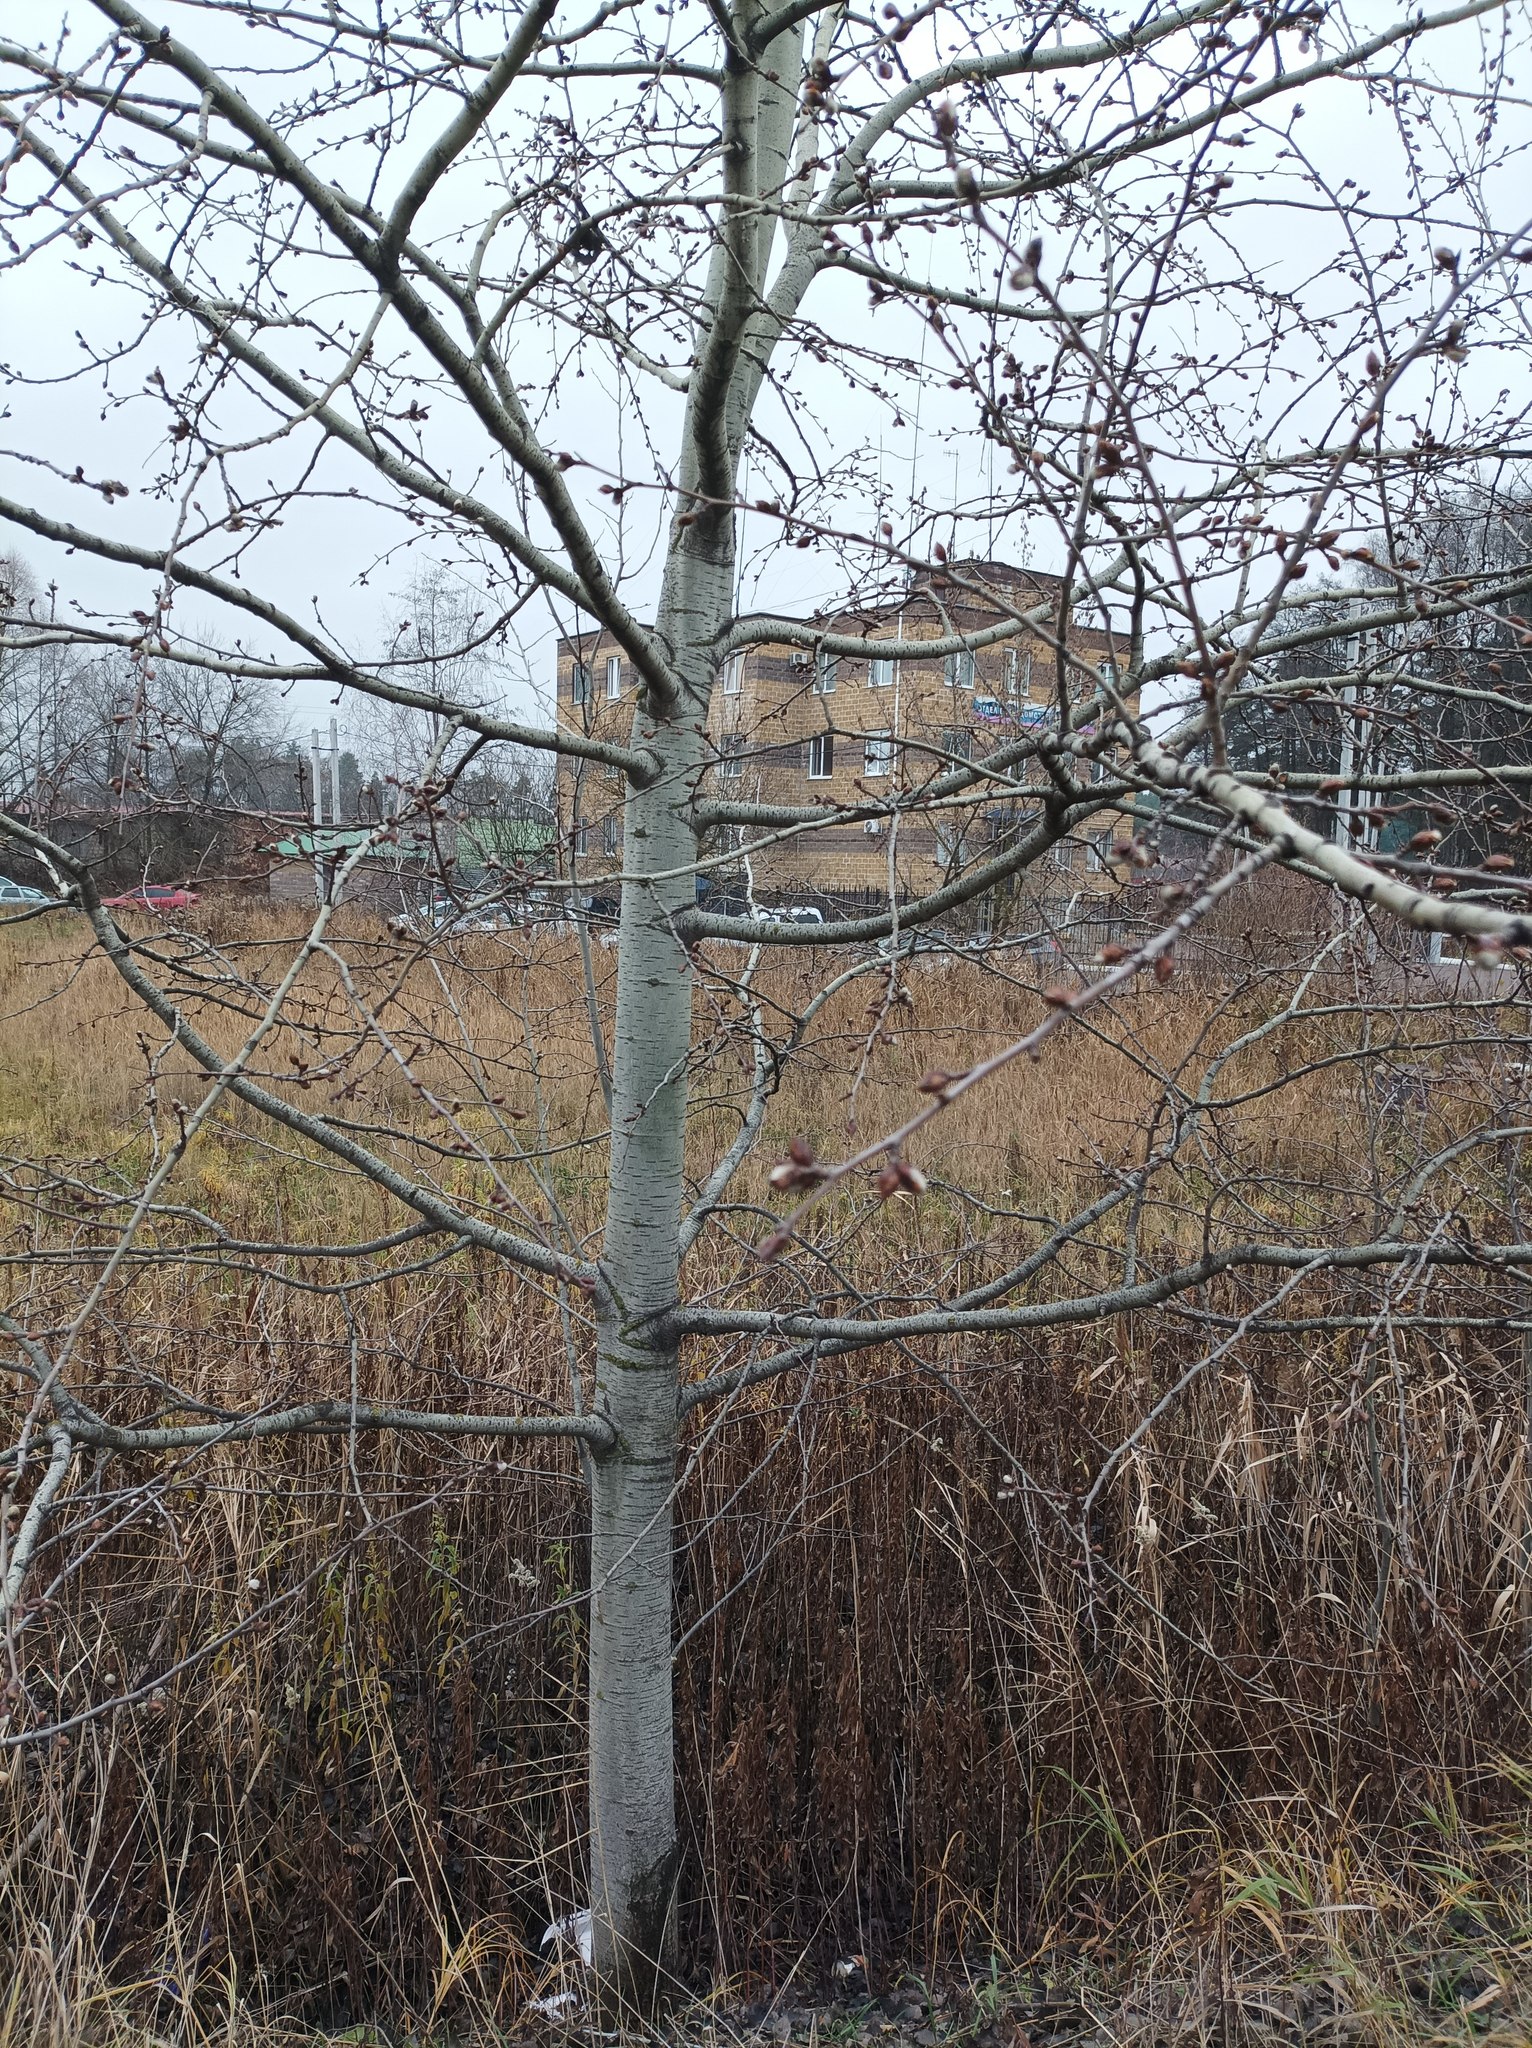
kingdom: Plantae
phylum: Tracheophyta
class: Magnoliopsida
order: Malpighiales
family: Salicaceae
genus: Populus
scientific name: Populus tremula
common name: European aspen
